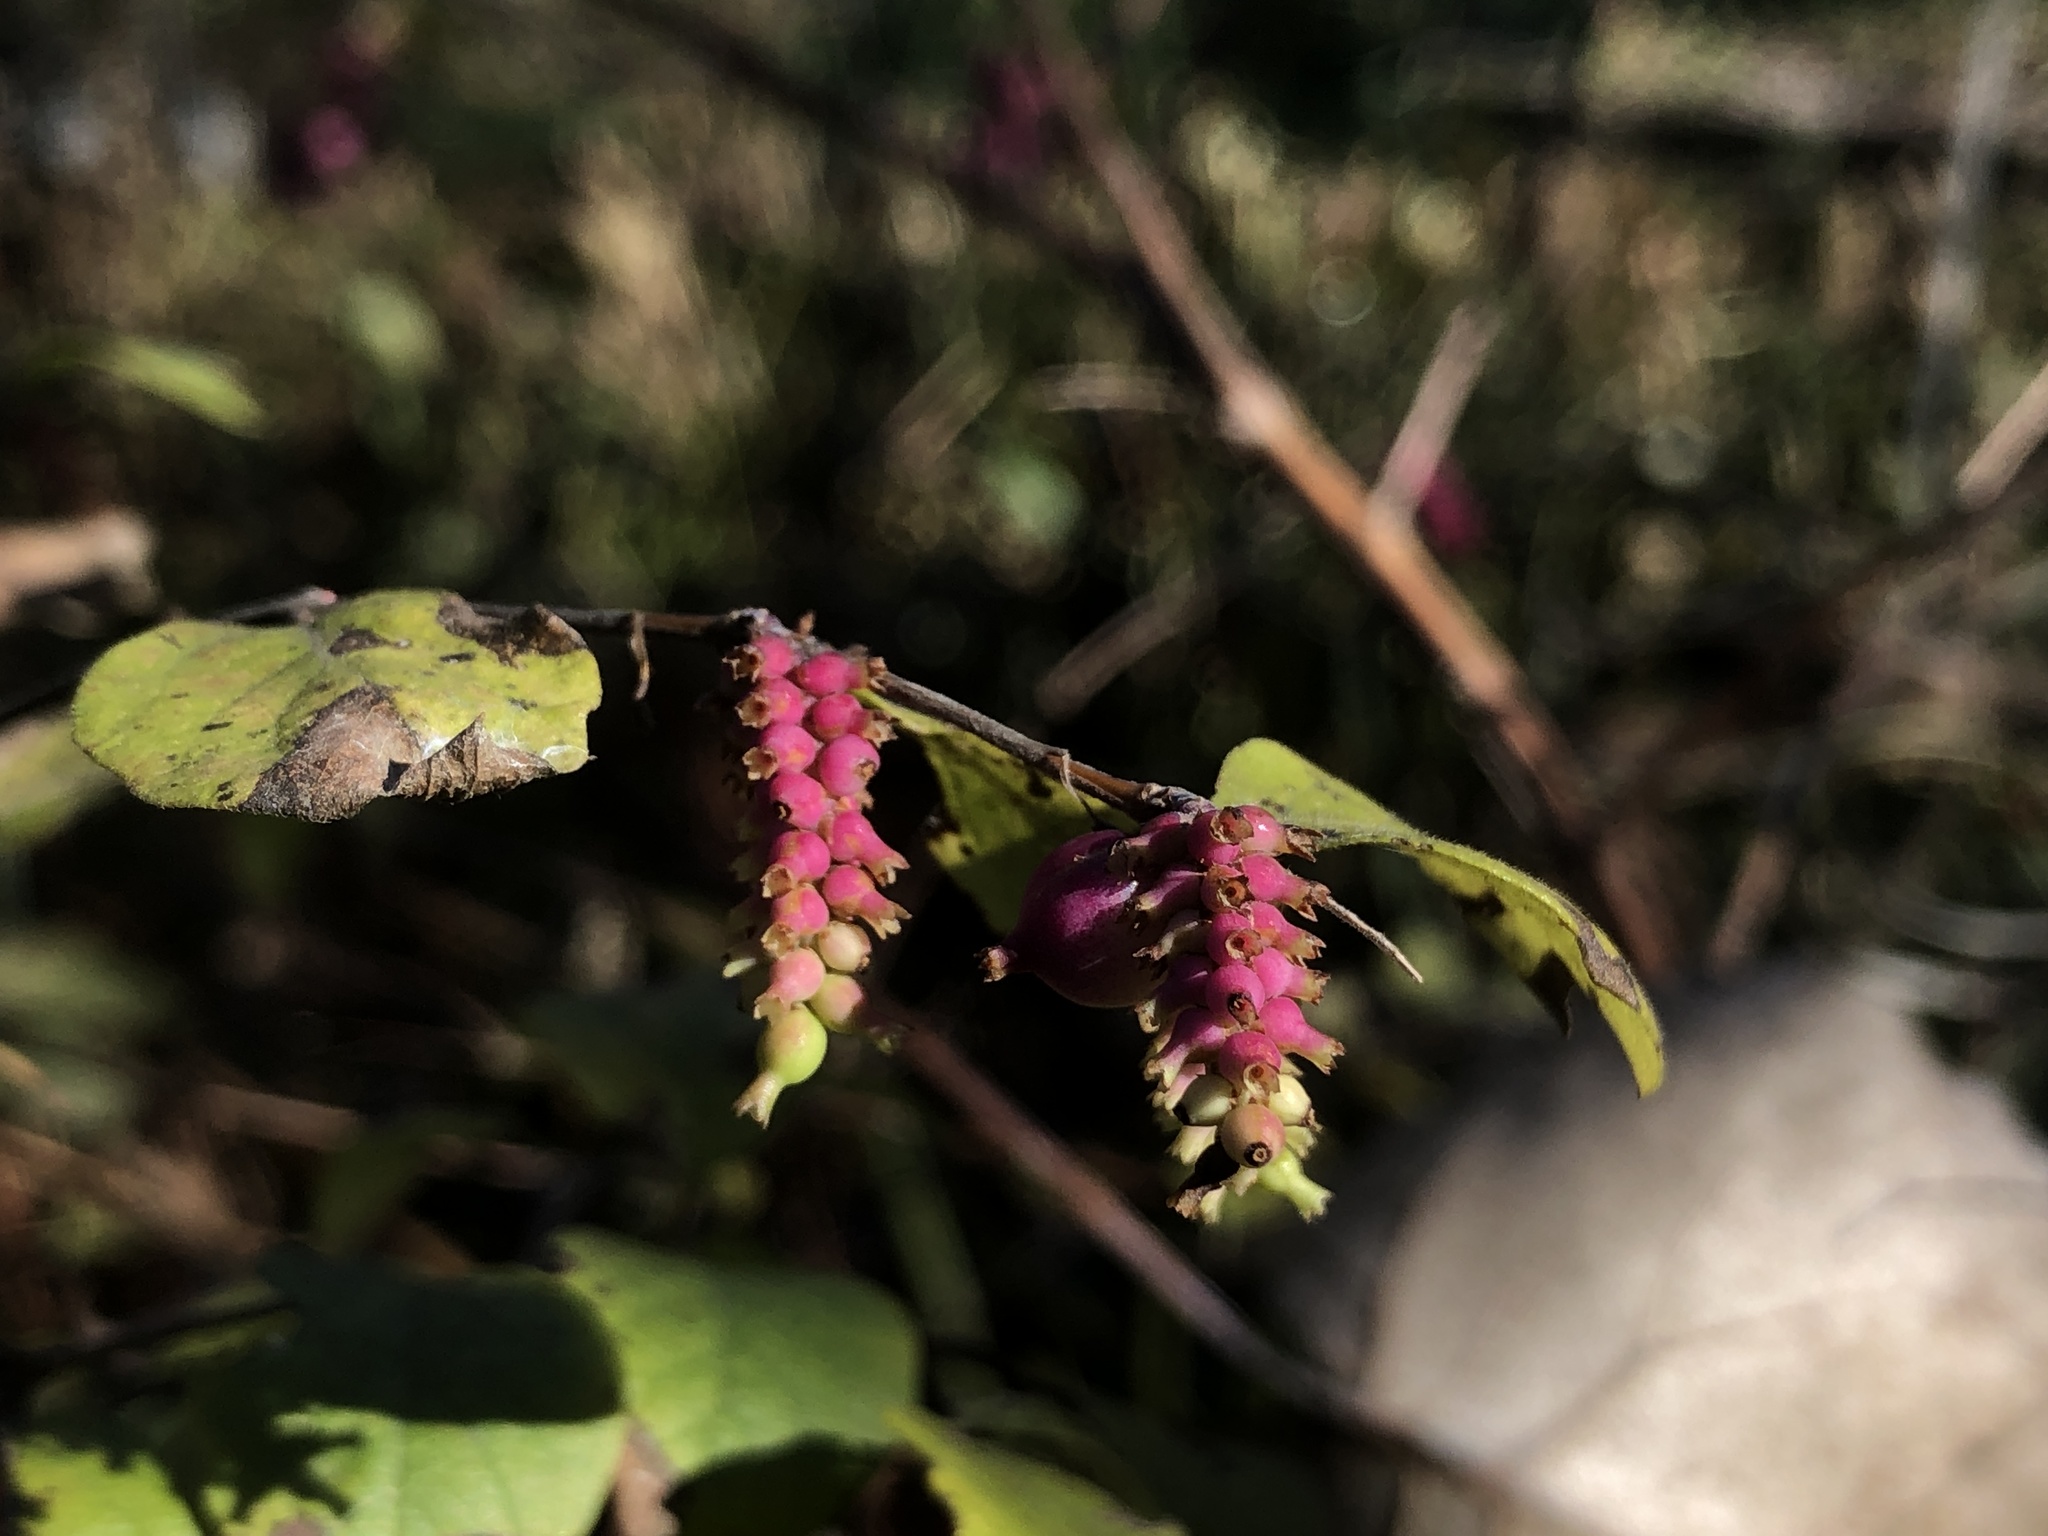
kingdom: Plantae
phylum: Tracheophyta
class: Magnoliopsida
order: Dipsacales
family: Caprifoliaceae
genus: Symphoricarpos
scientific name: Symphoricarpos orbiculatus
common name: Coralberry
